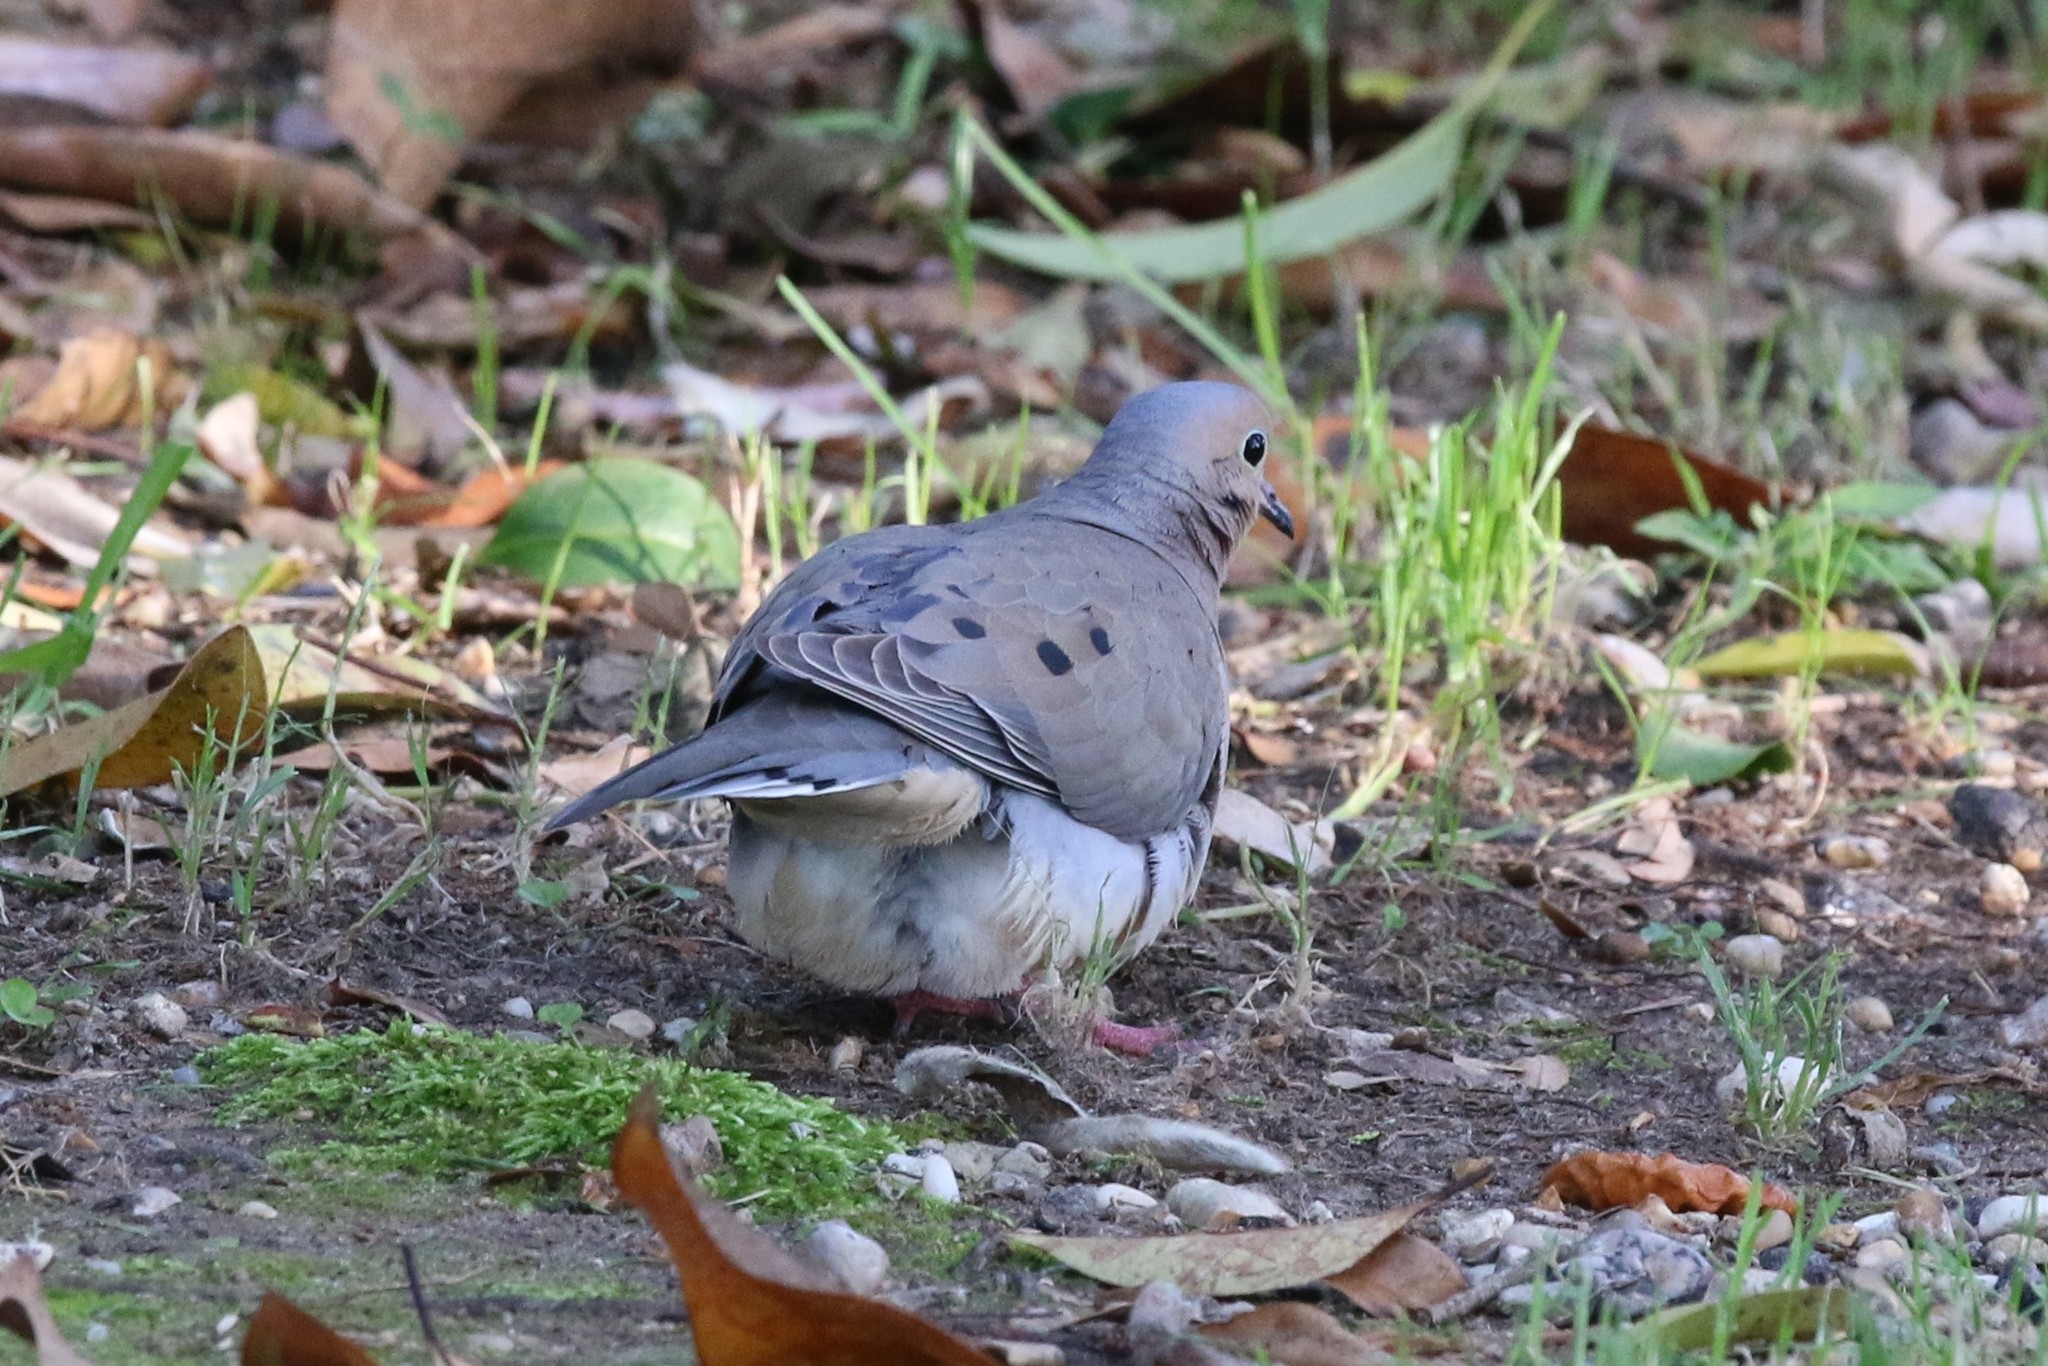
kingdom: Animalia
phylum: Chordata
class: Aves
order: Columbiformes
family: Columbidae
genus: Zenaida
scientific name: Zenaida macroura
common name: Mourning dove
